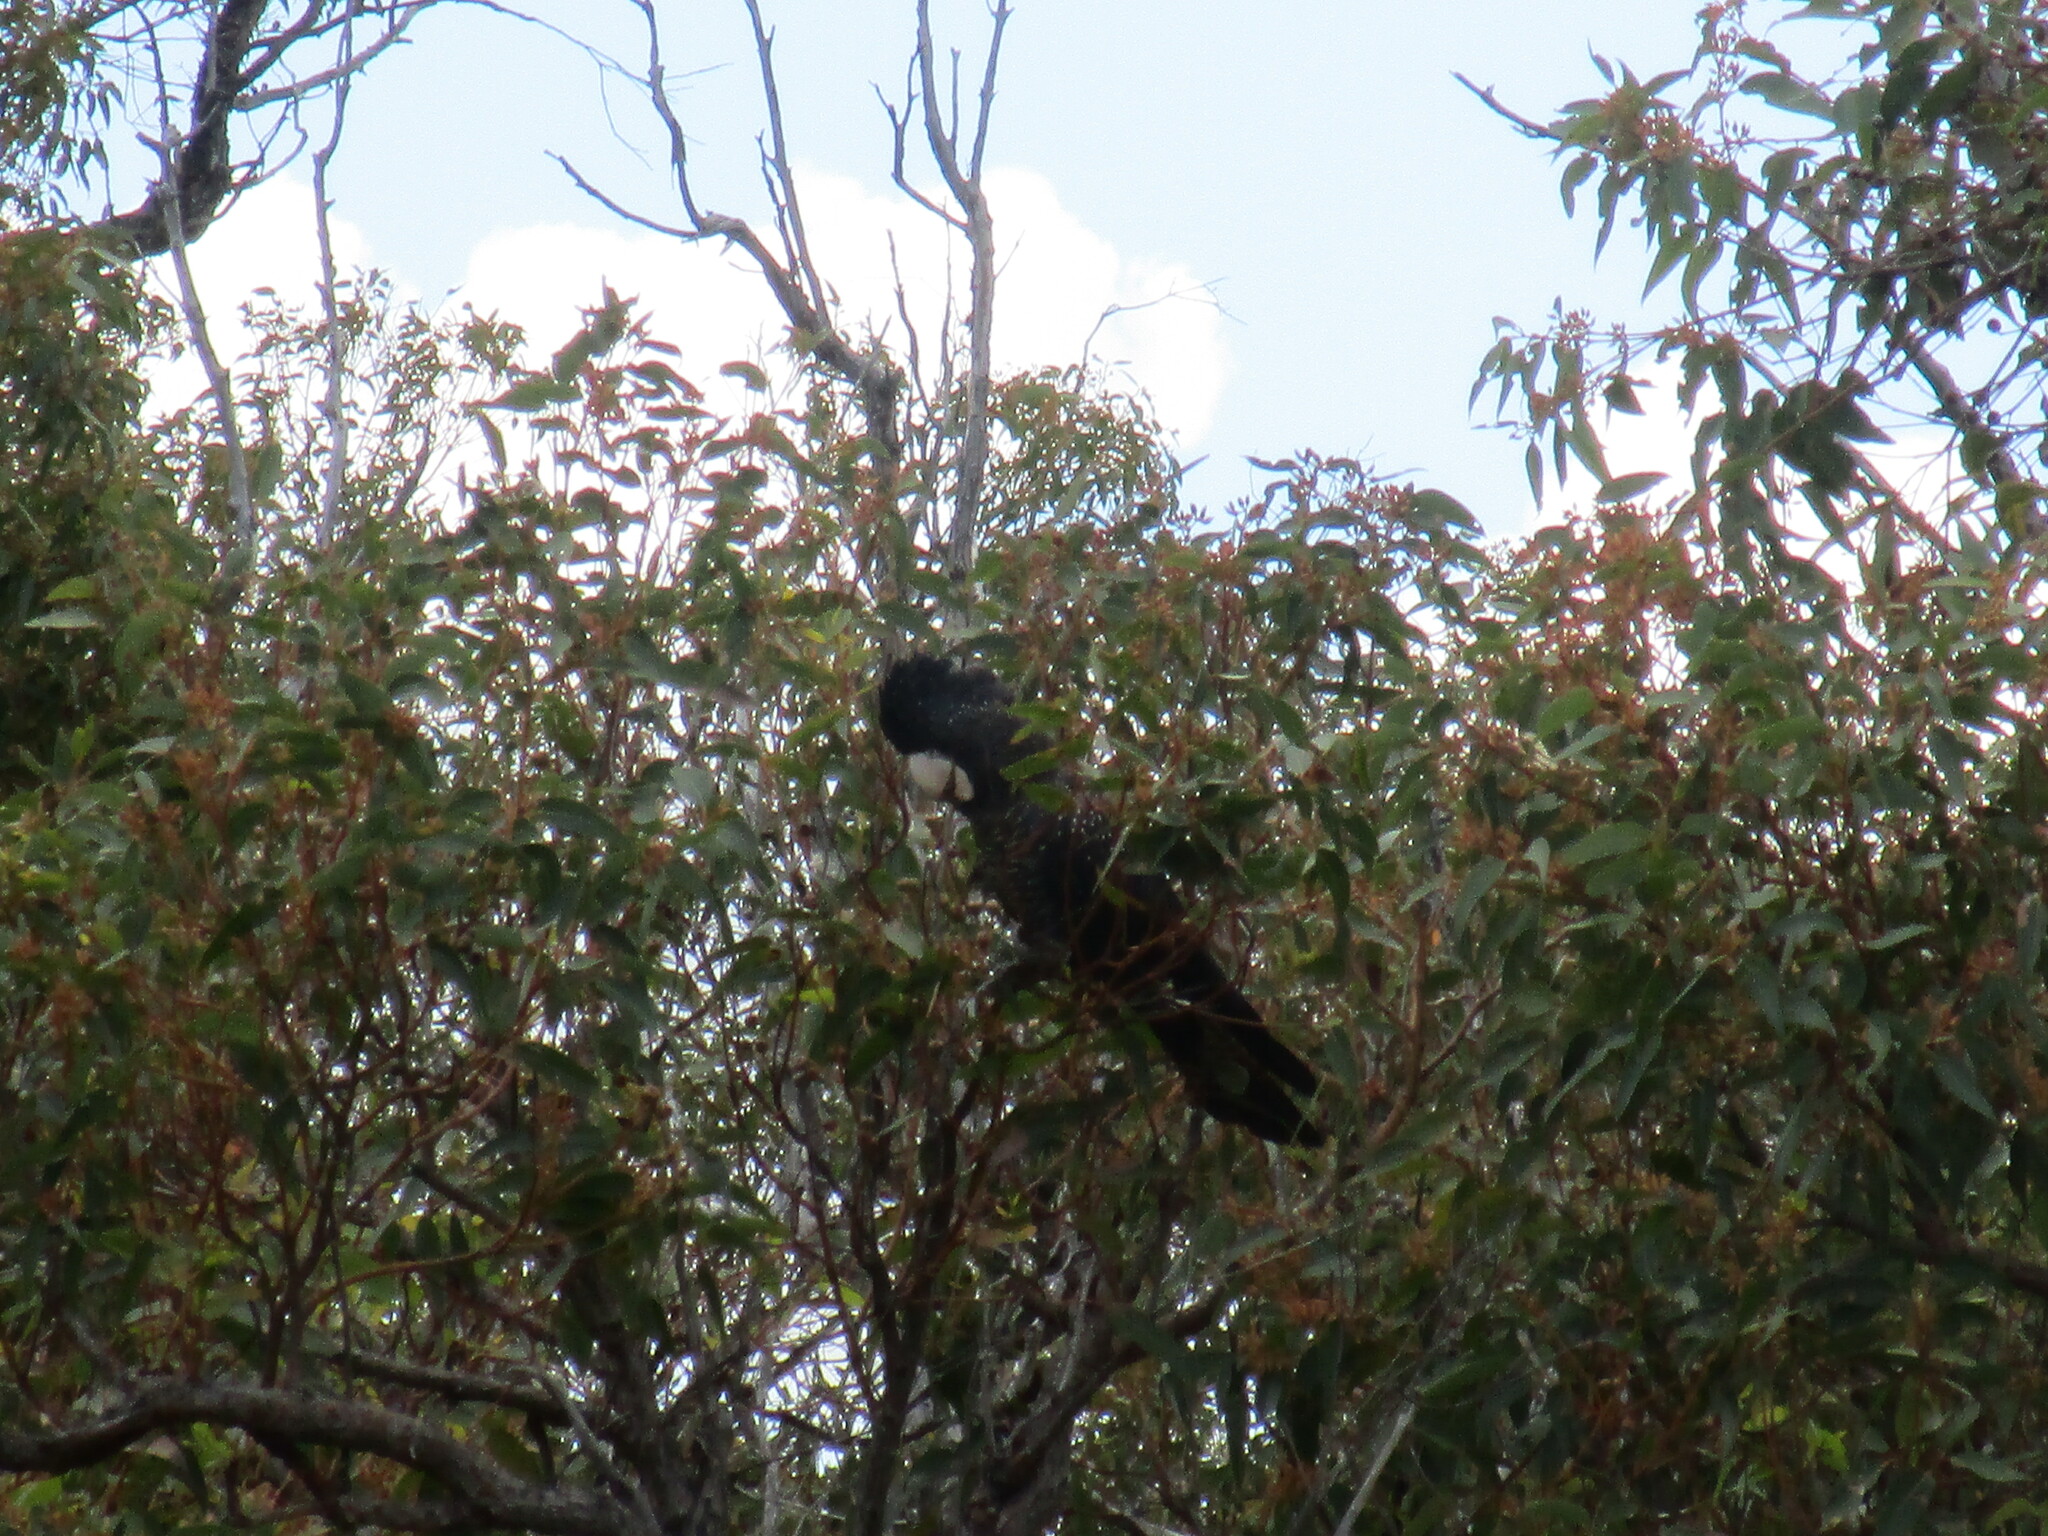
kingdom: Animalia
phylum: Chordata
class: Aves
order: Psittaciformes
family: Psittacidae
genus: Calyptorhynchus
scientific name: Calyptorhynchus banksii
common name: Red-tailed black cockatoo
